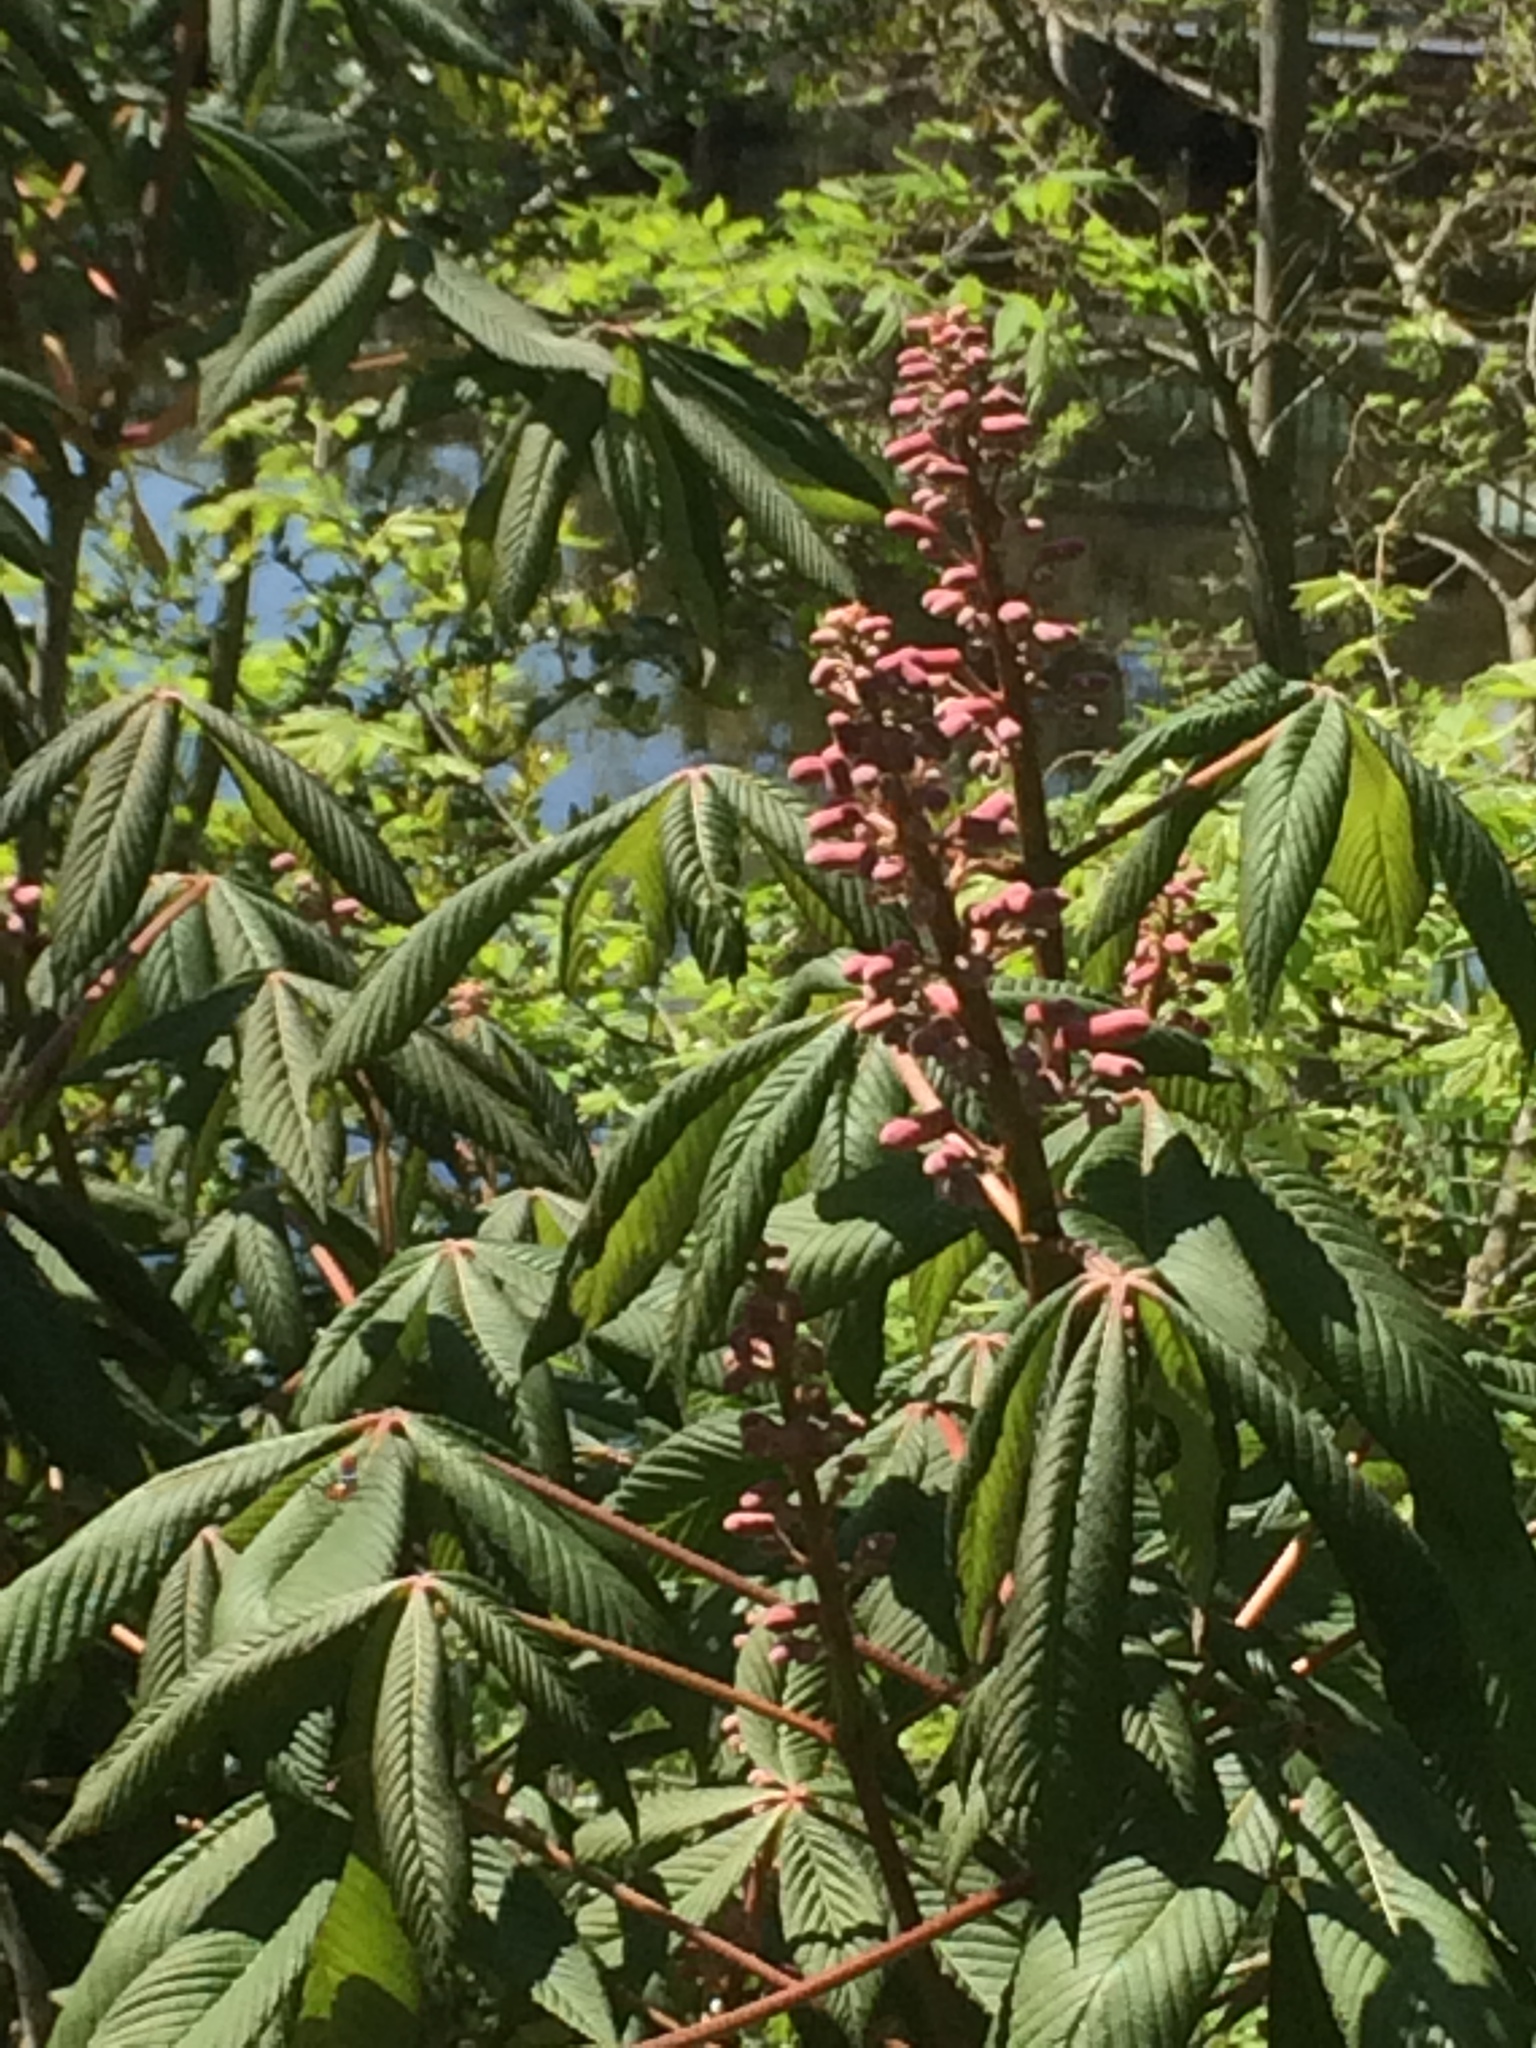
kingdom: Plantae
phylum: Tracheophyta
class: Magnoliopsida
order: Sapindales
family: Sapindaceae
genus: Aesculus
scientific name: Aesculus pavia
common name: Red buckeye
